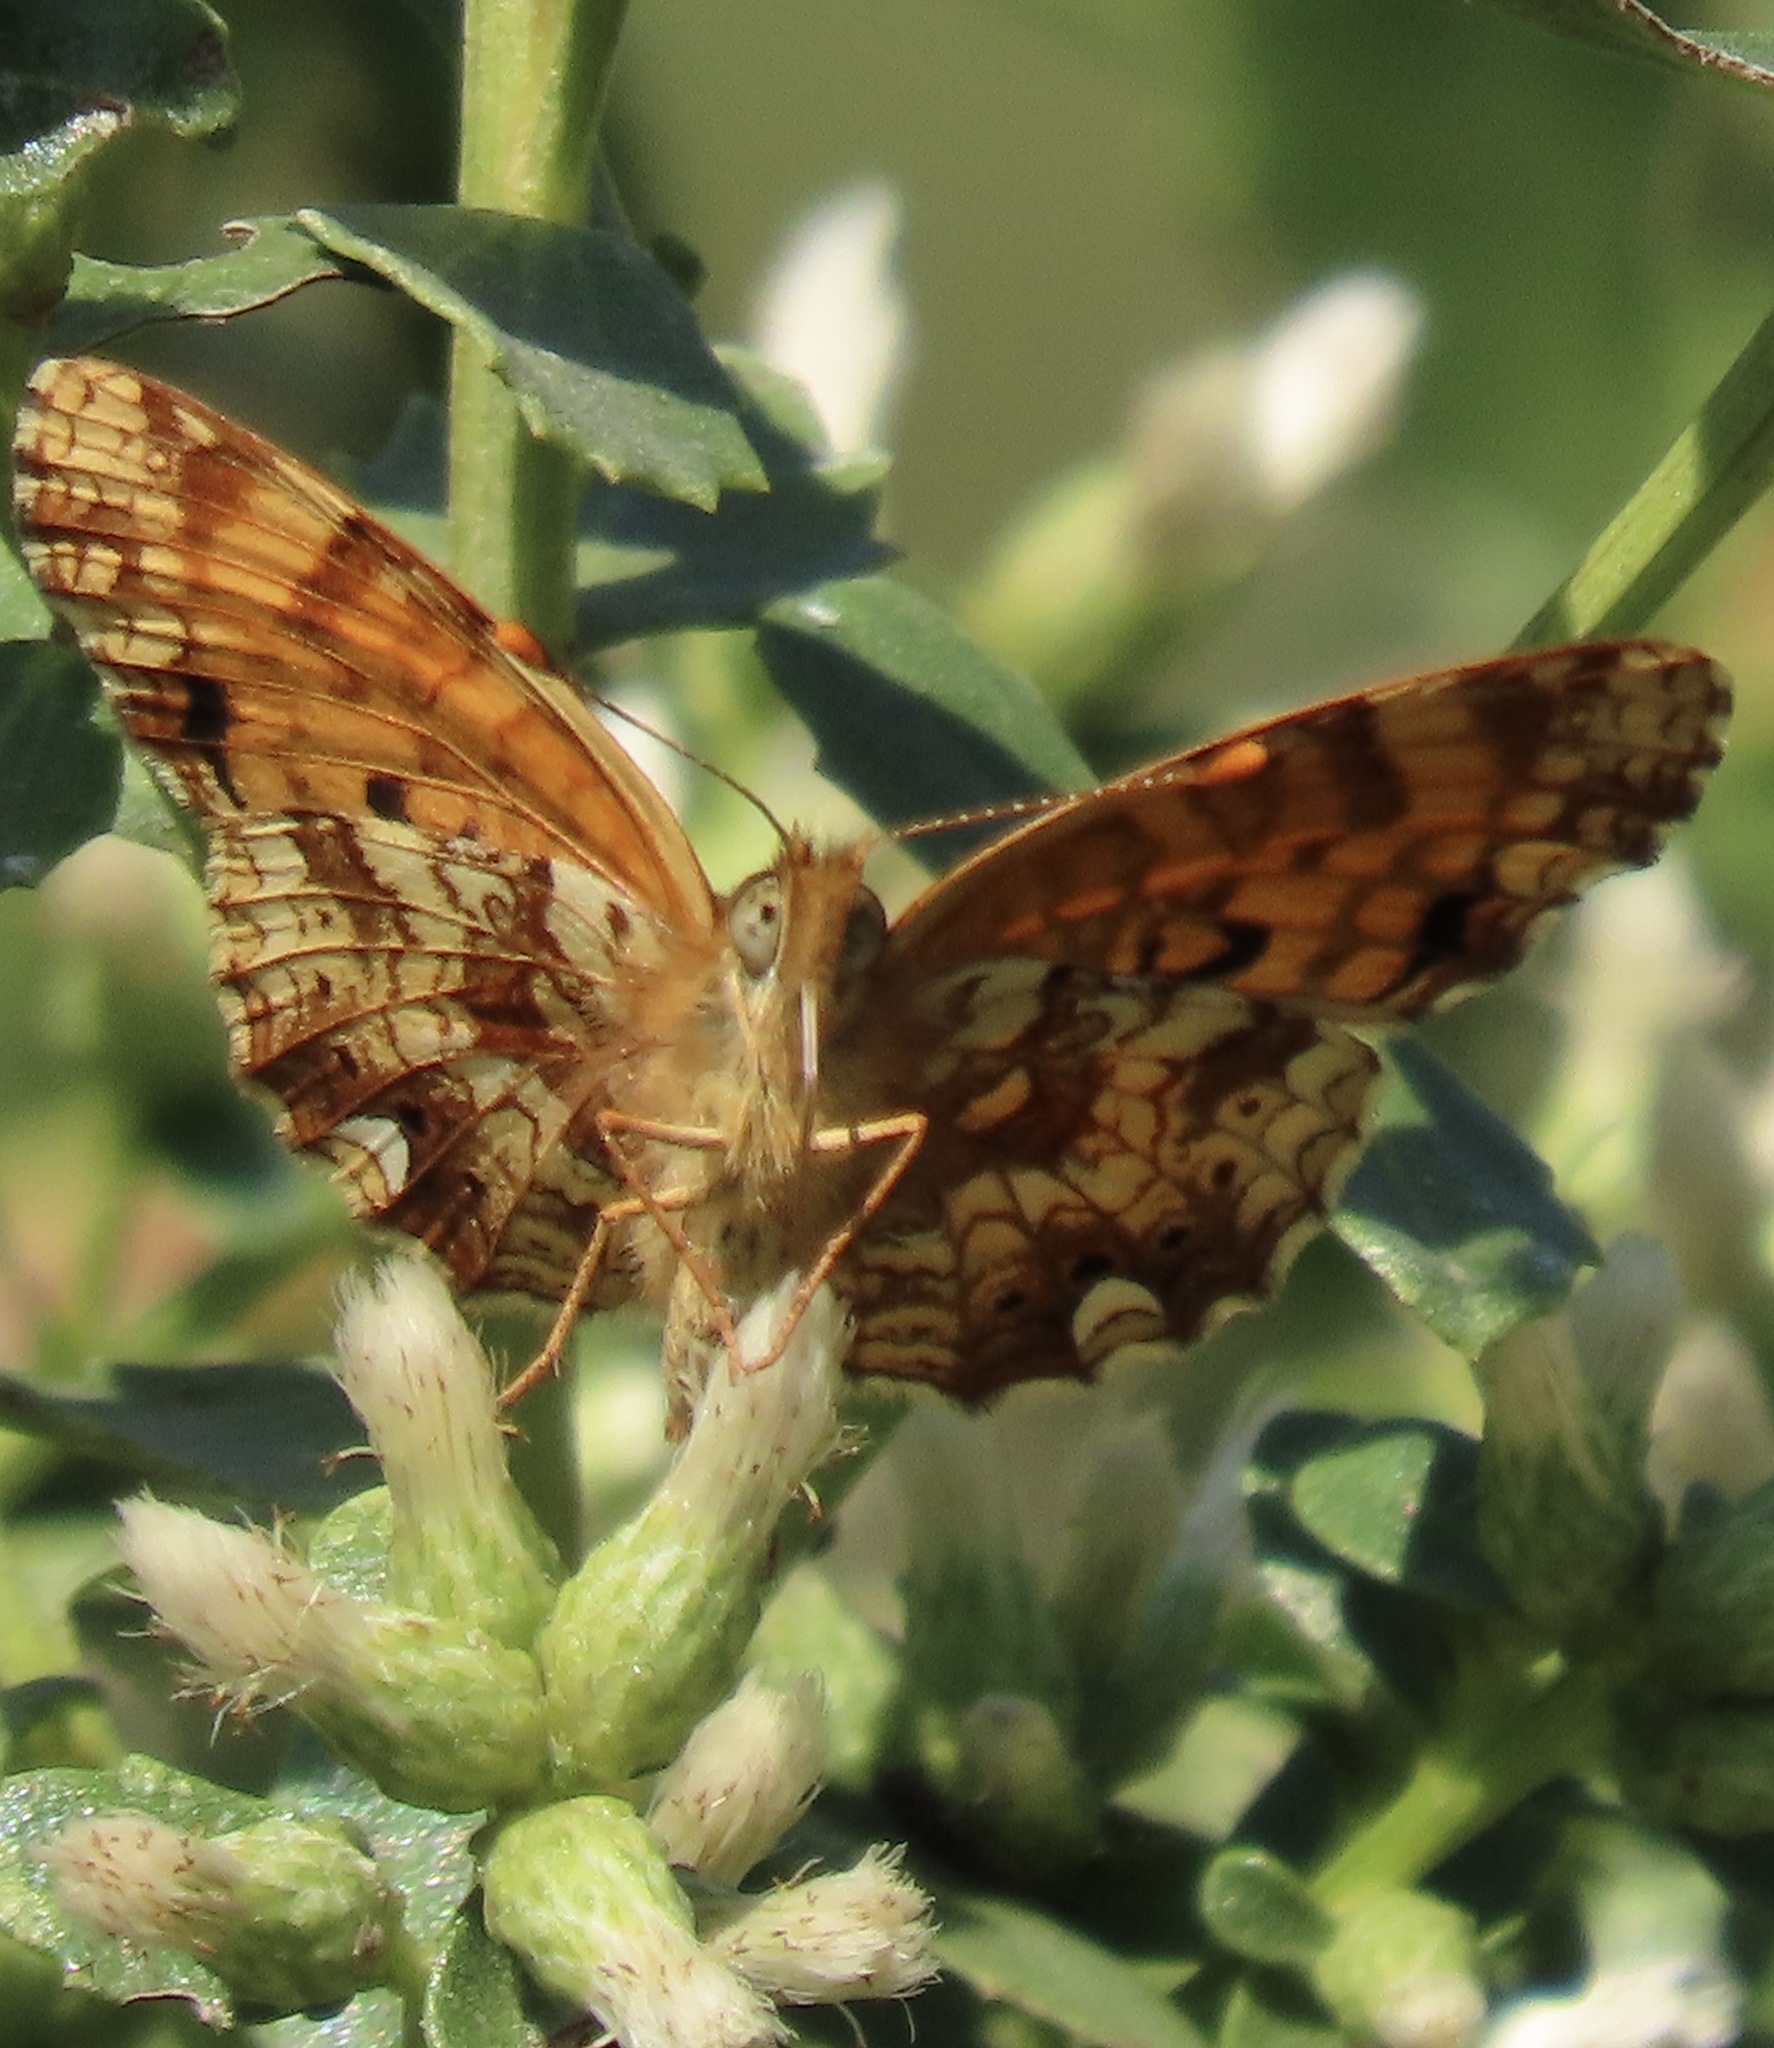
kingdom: Animalia
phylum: Arthropoda
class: Insecta
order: Lepidoptera
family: Nymphalidae
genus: Eresia
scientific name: Eresia aveyrona
